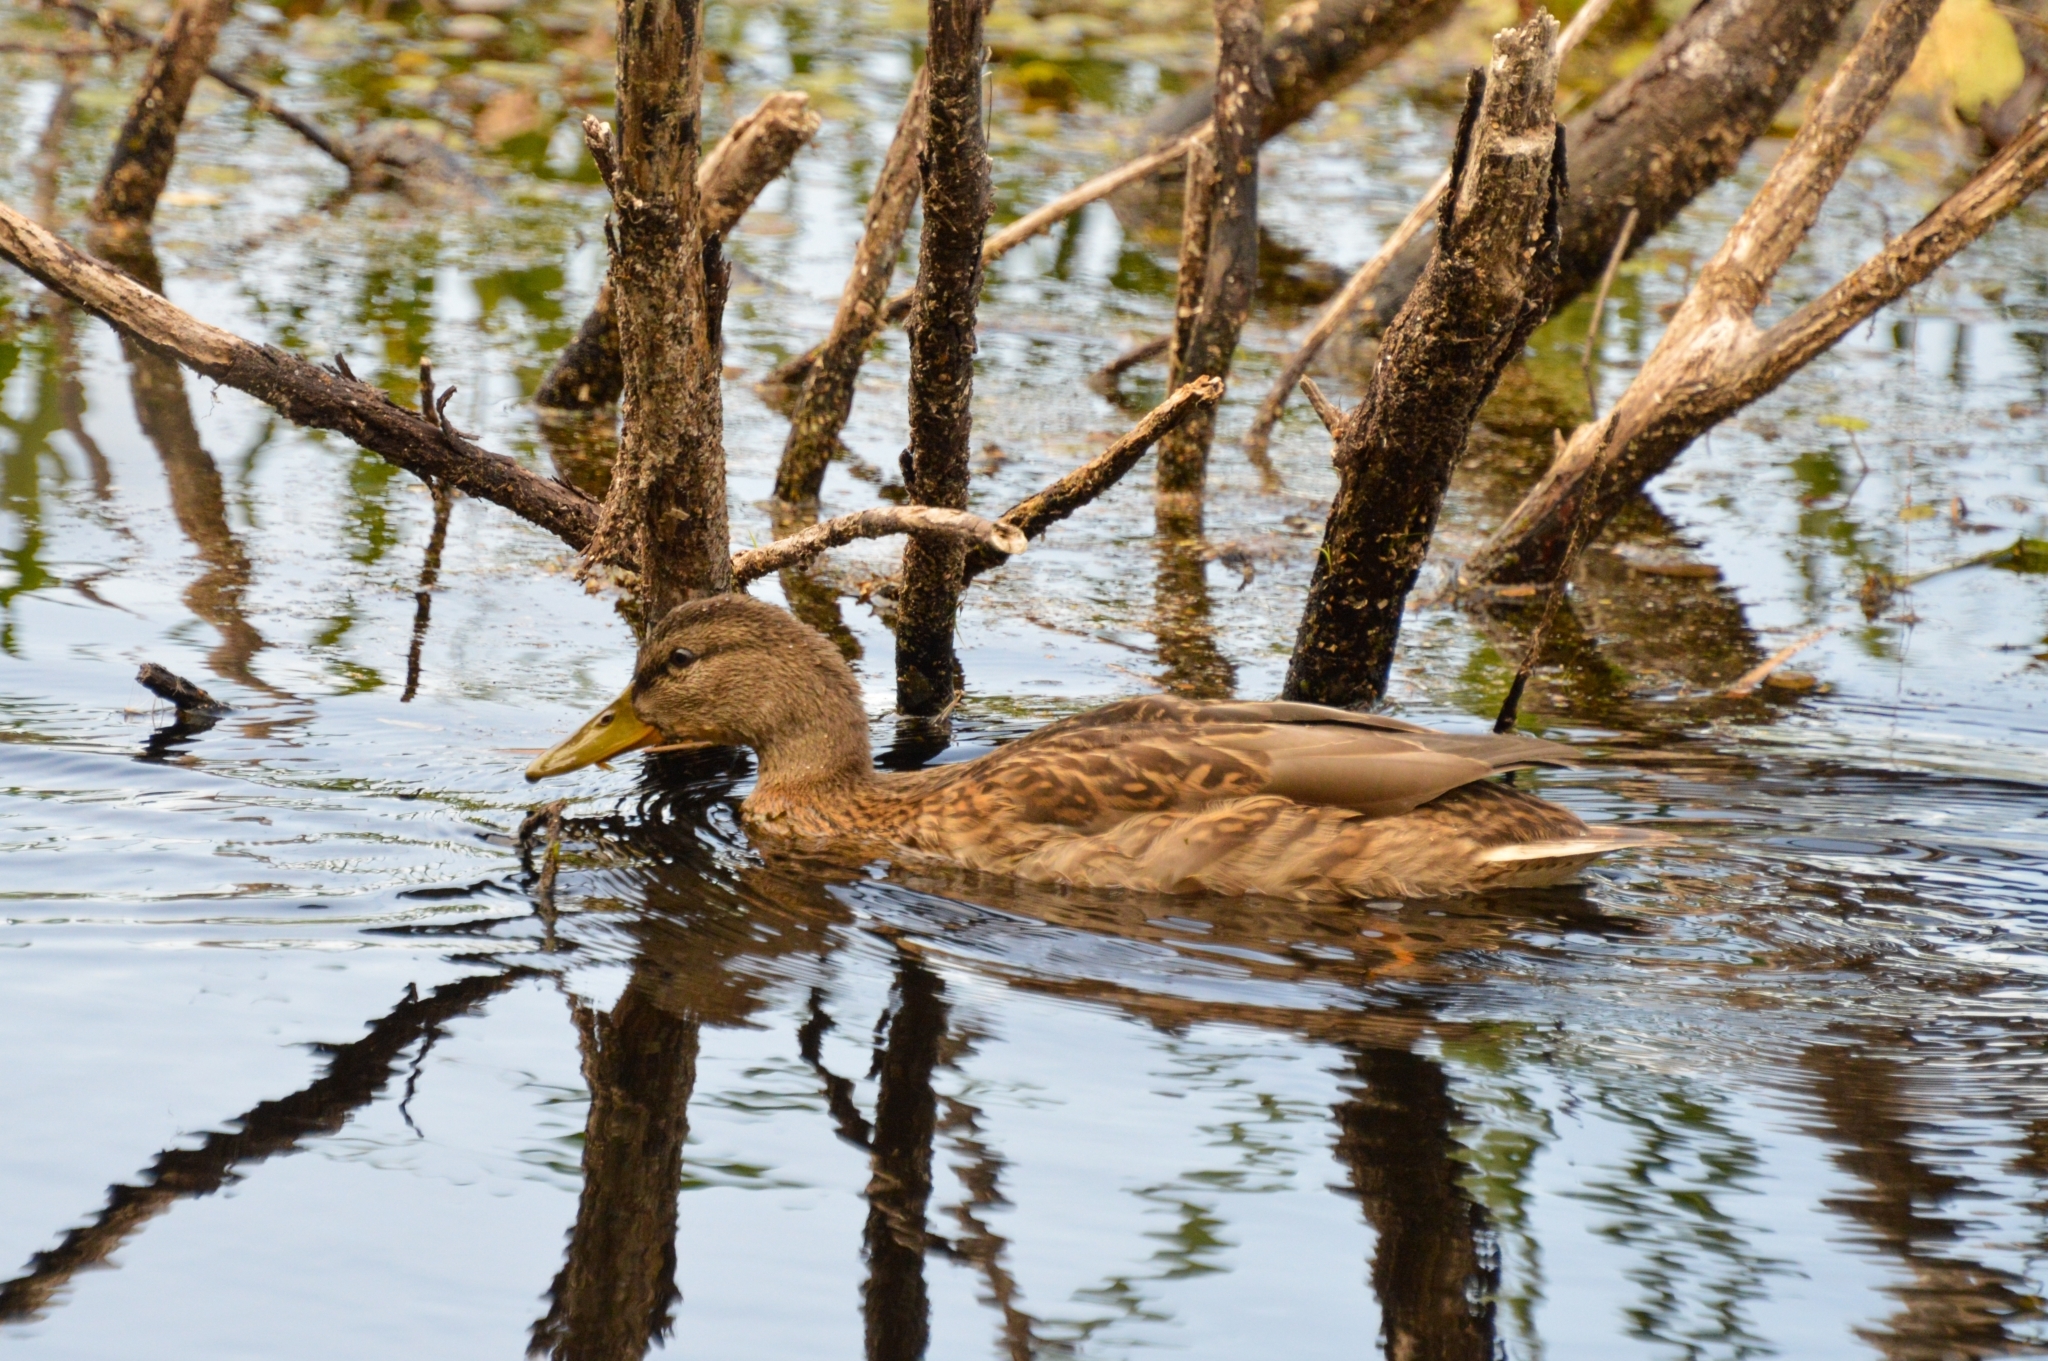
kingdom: Animalia
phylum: Chordata
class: Aves
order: Anseriformes
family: Anatidae
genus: Anas
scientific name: Anas platyrhynchos
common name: Mallard
